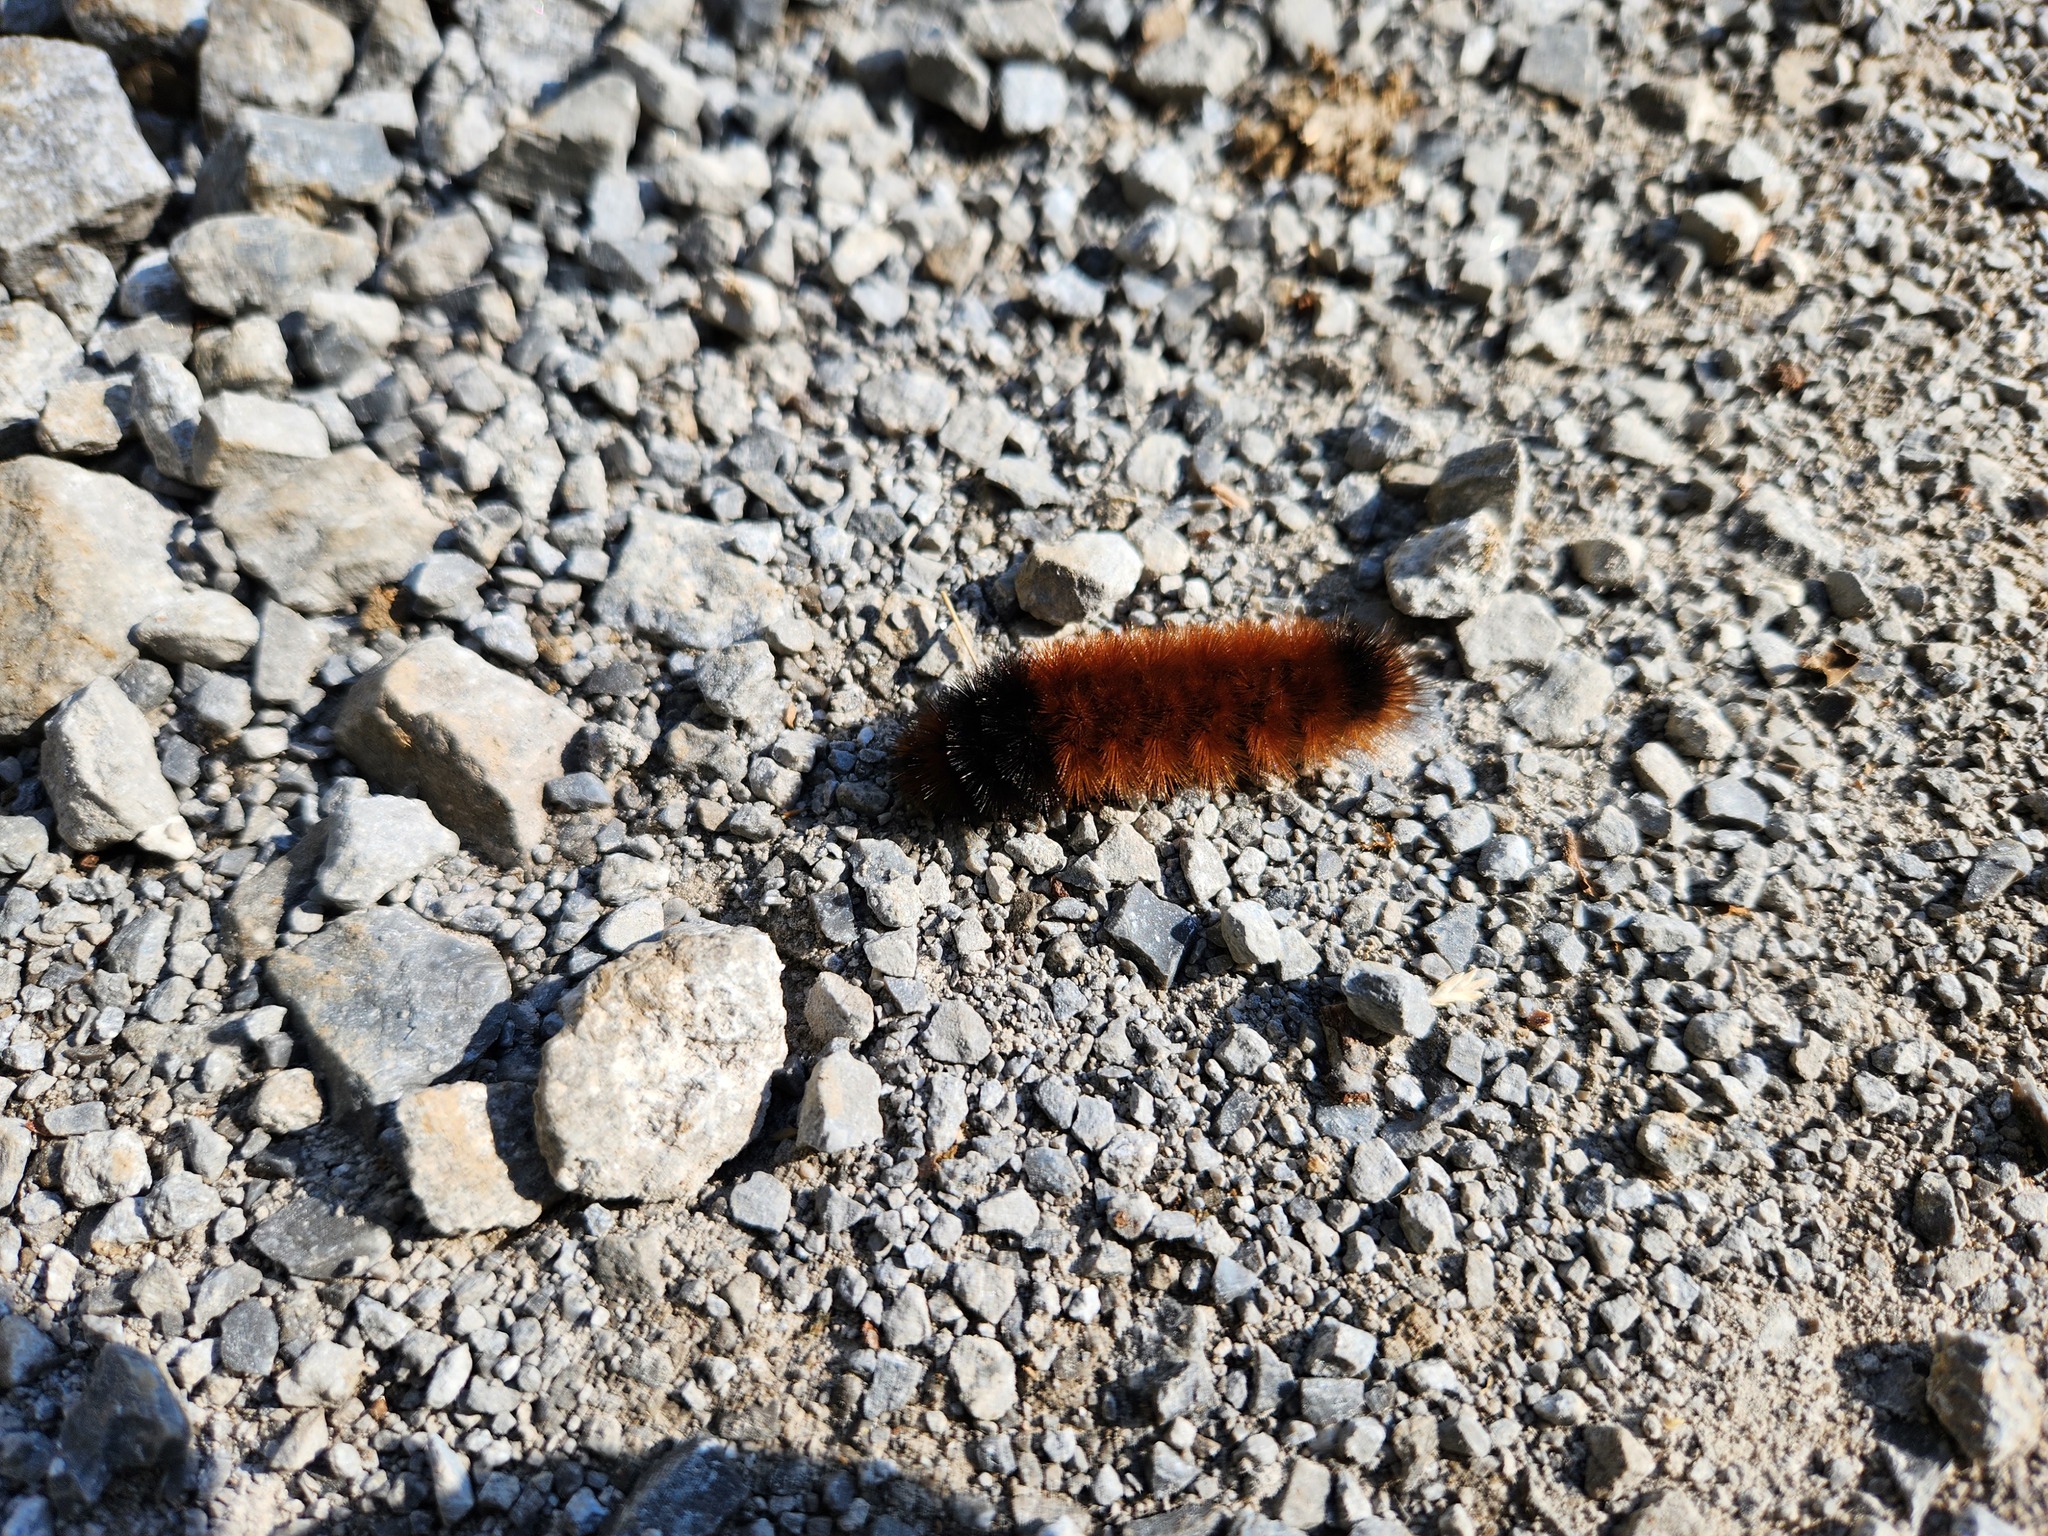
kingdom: Animalia
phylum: Arthropoda
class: Insecta
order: Lepidoptera
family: Erebidae
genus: Pyrrharctia
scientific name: Pyrrharctia isabella
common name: Isabella tiger moth
